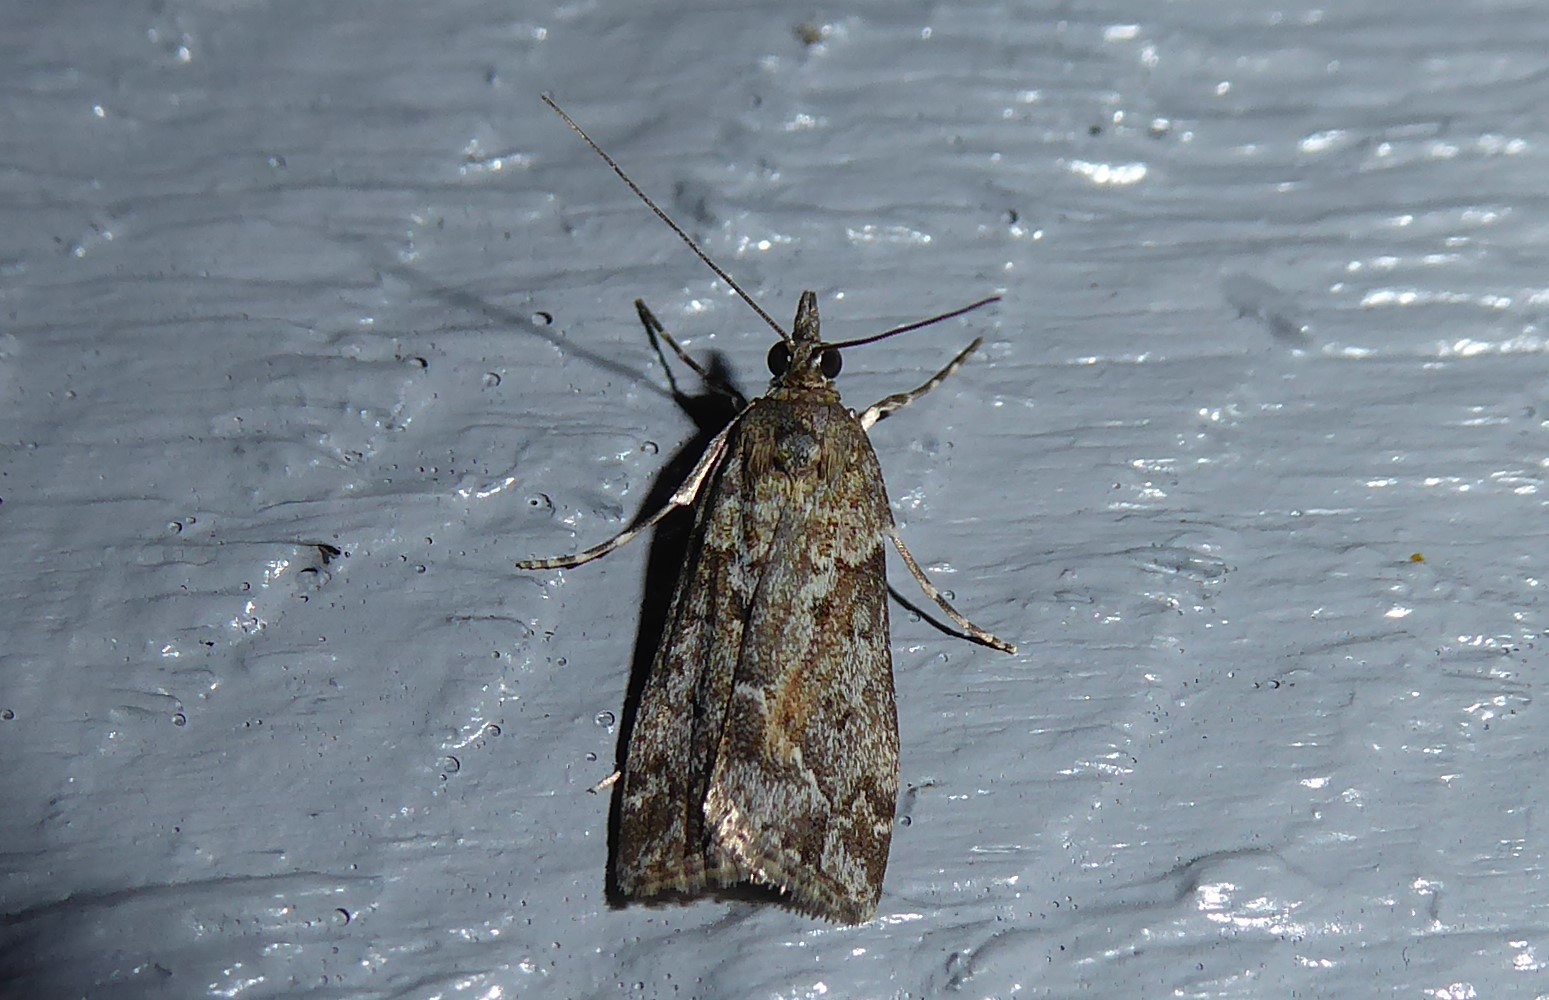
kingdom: Animalia
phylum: Arthropoda
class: Insecta
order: Lepidoptera
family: Crambidae
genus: Eudonia
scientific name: Eudonia submarginalis
